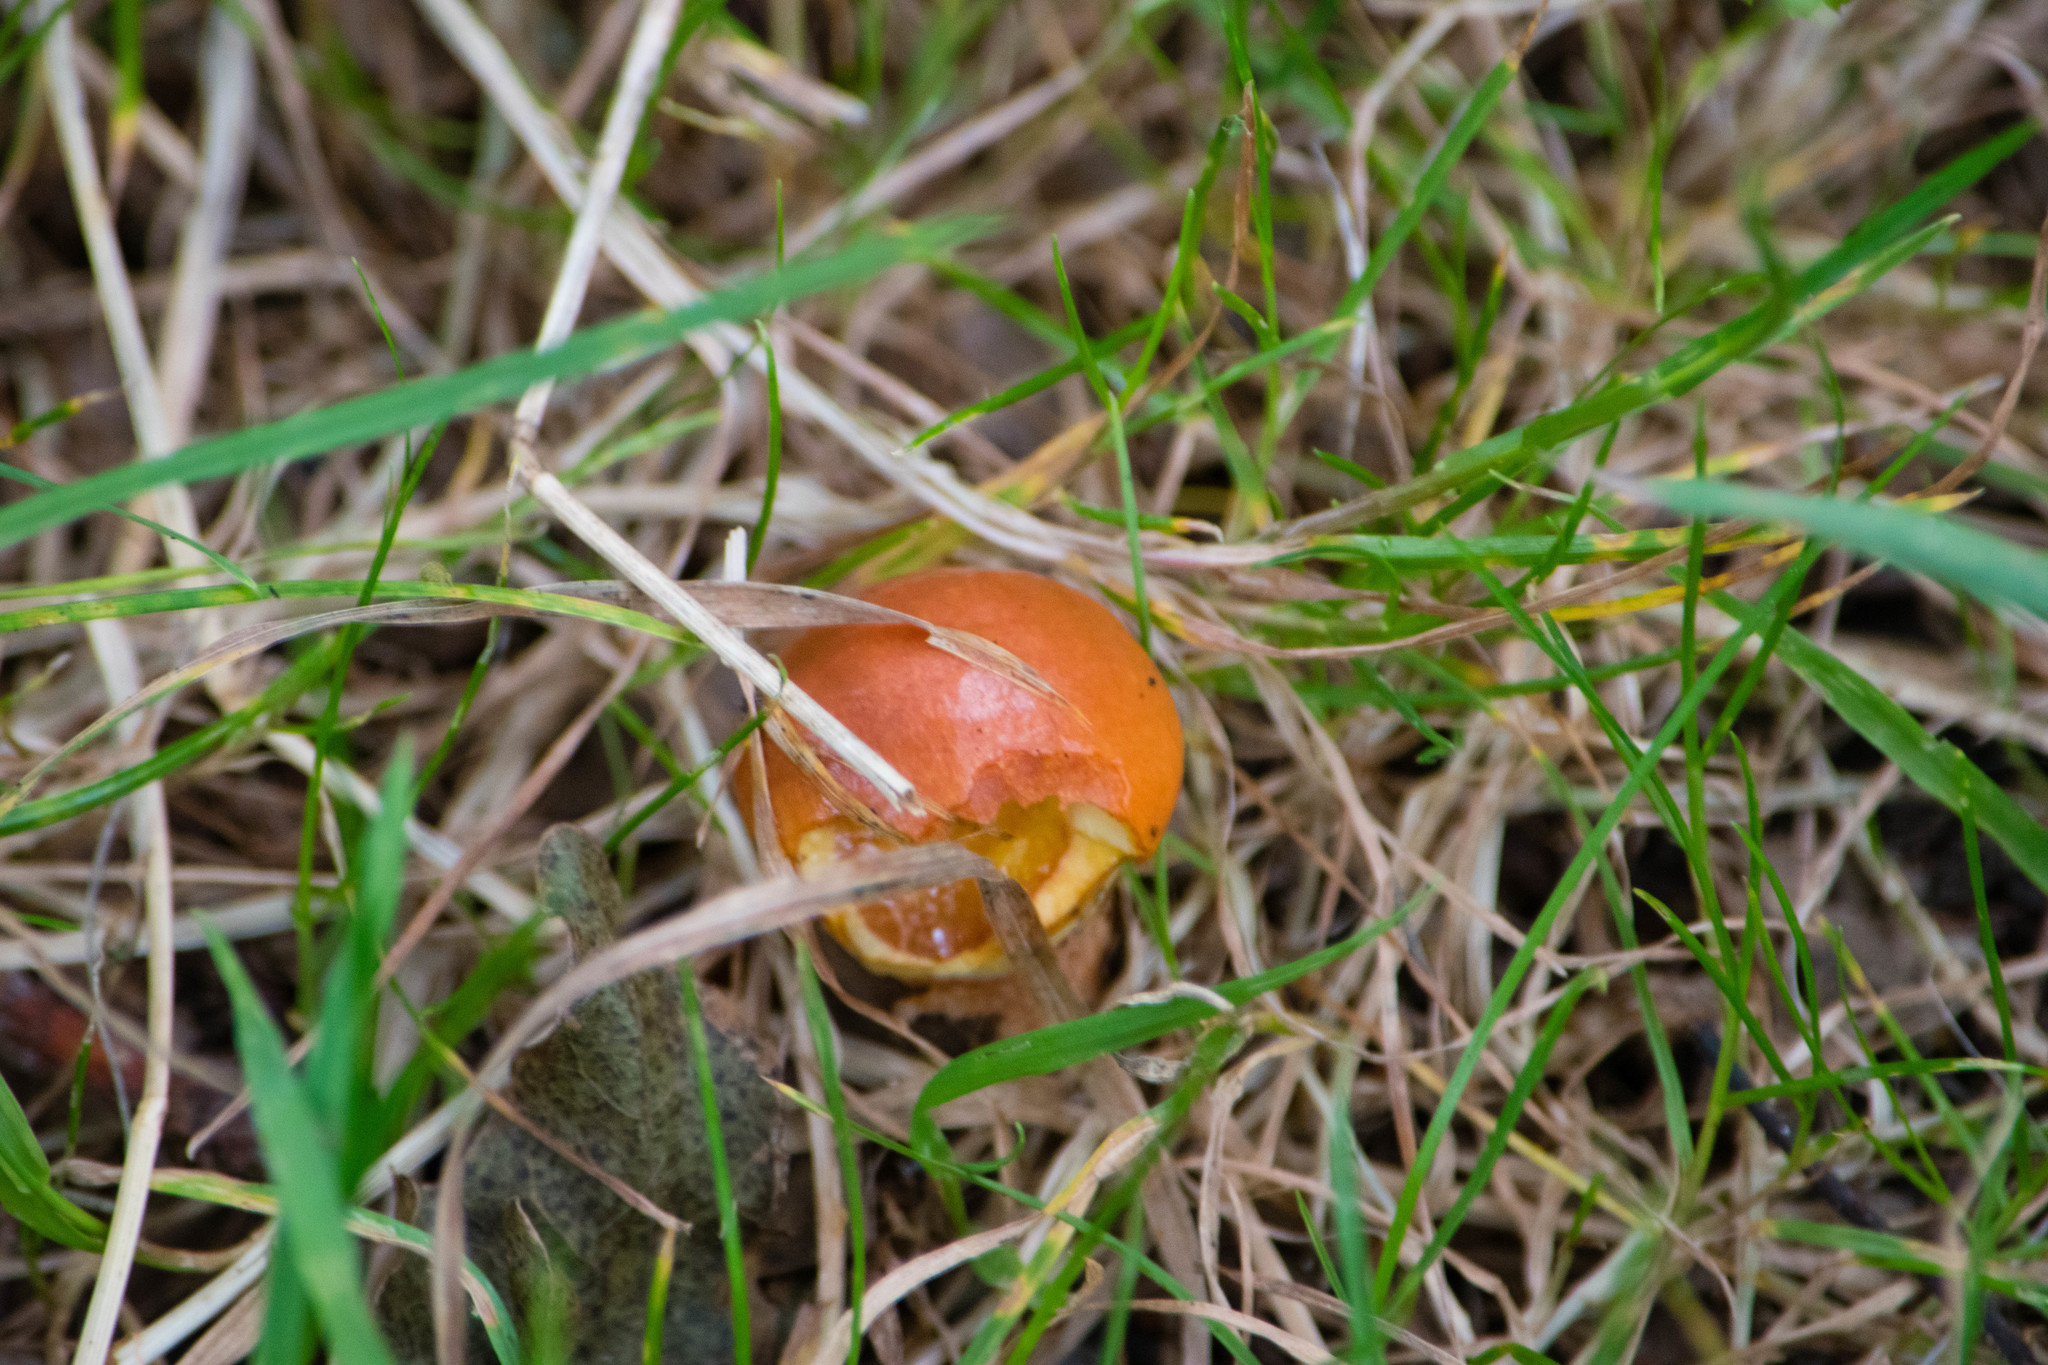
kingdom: Fungi
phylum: Basidiomycota
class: Agaricomycetes
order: Boletales
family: Suillaceae
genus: Suillus
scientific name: Suillus grevillei
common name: Larch bolete
